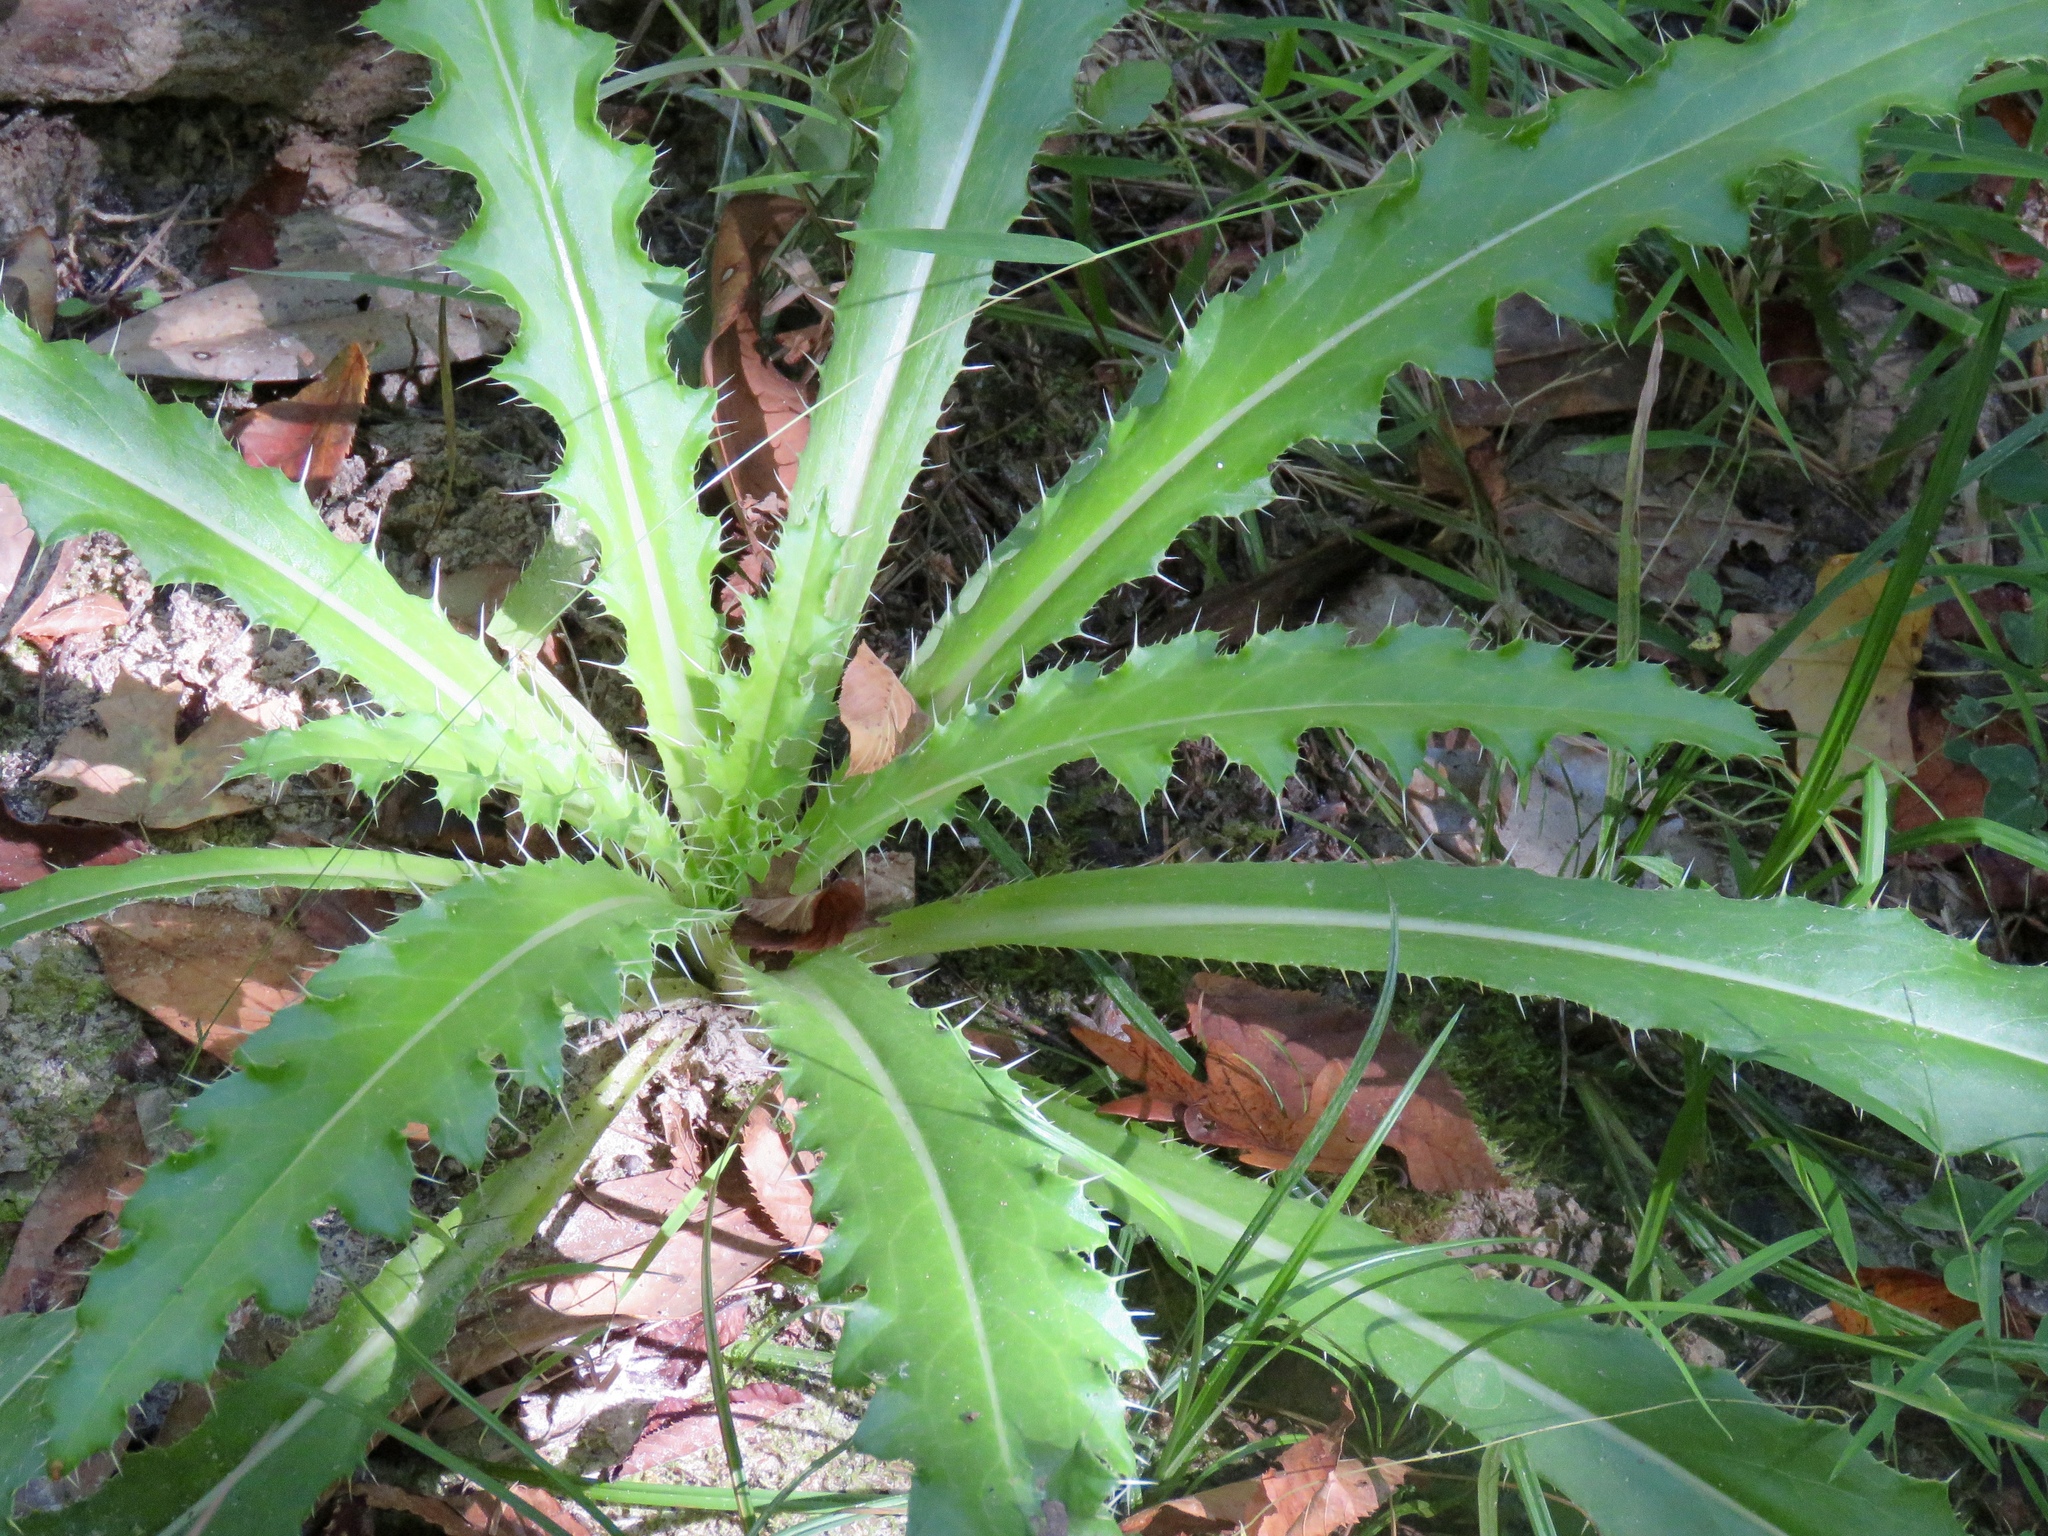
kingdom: Plantae
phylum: Tracheophyta
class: Magnoliopsida
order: Asterales
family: Asteraceae
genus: Cirsium
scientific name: Cirsium horridulum
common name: Bristly thistle
